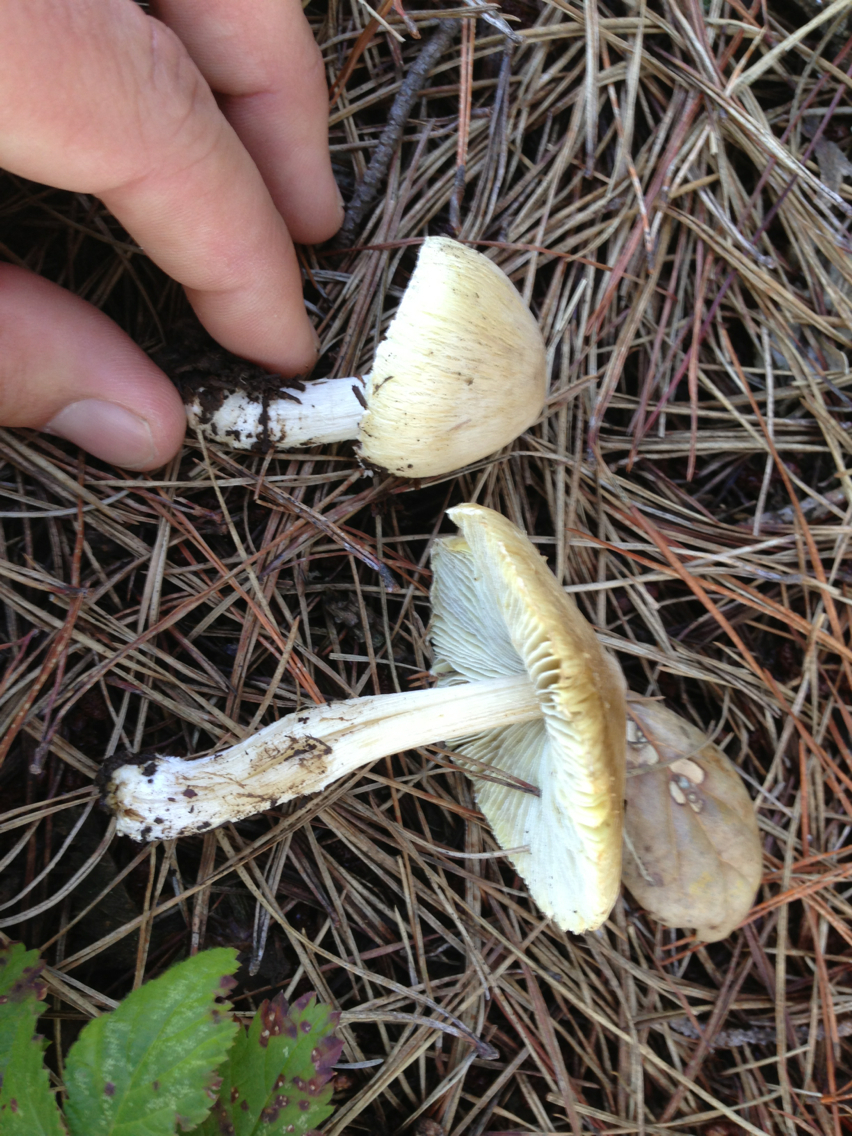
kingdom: Fungi
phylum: Basidiomycota
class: Agaricomycetes
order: Agaricales
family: Inocybaceae
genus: Pseudosperma
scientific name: Pseudosperma rimosum
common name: Split fibrecap
